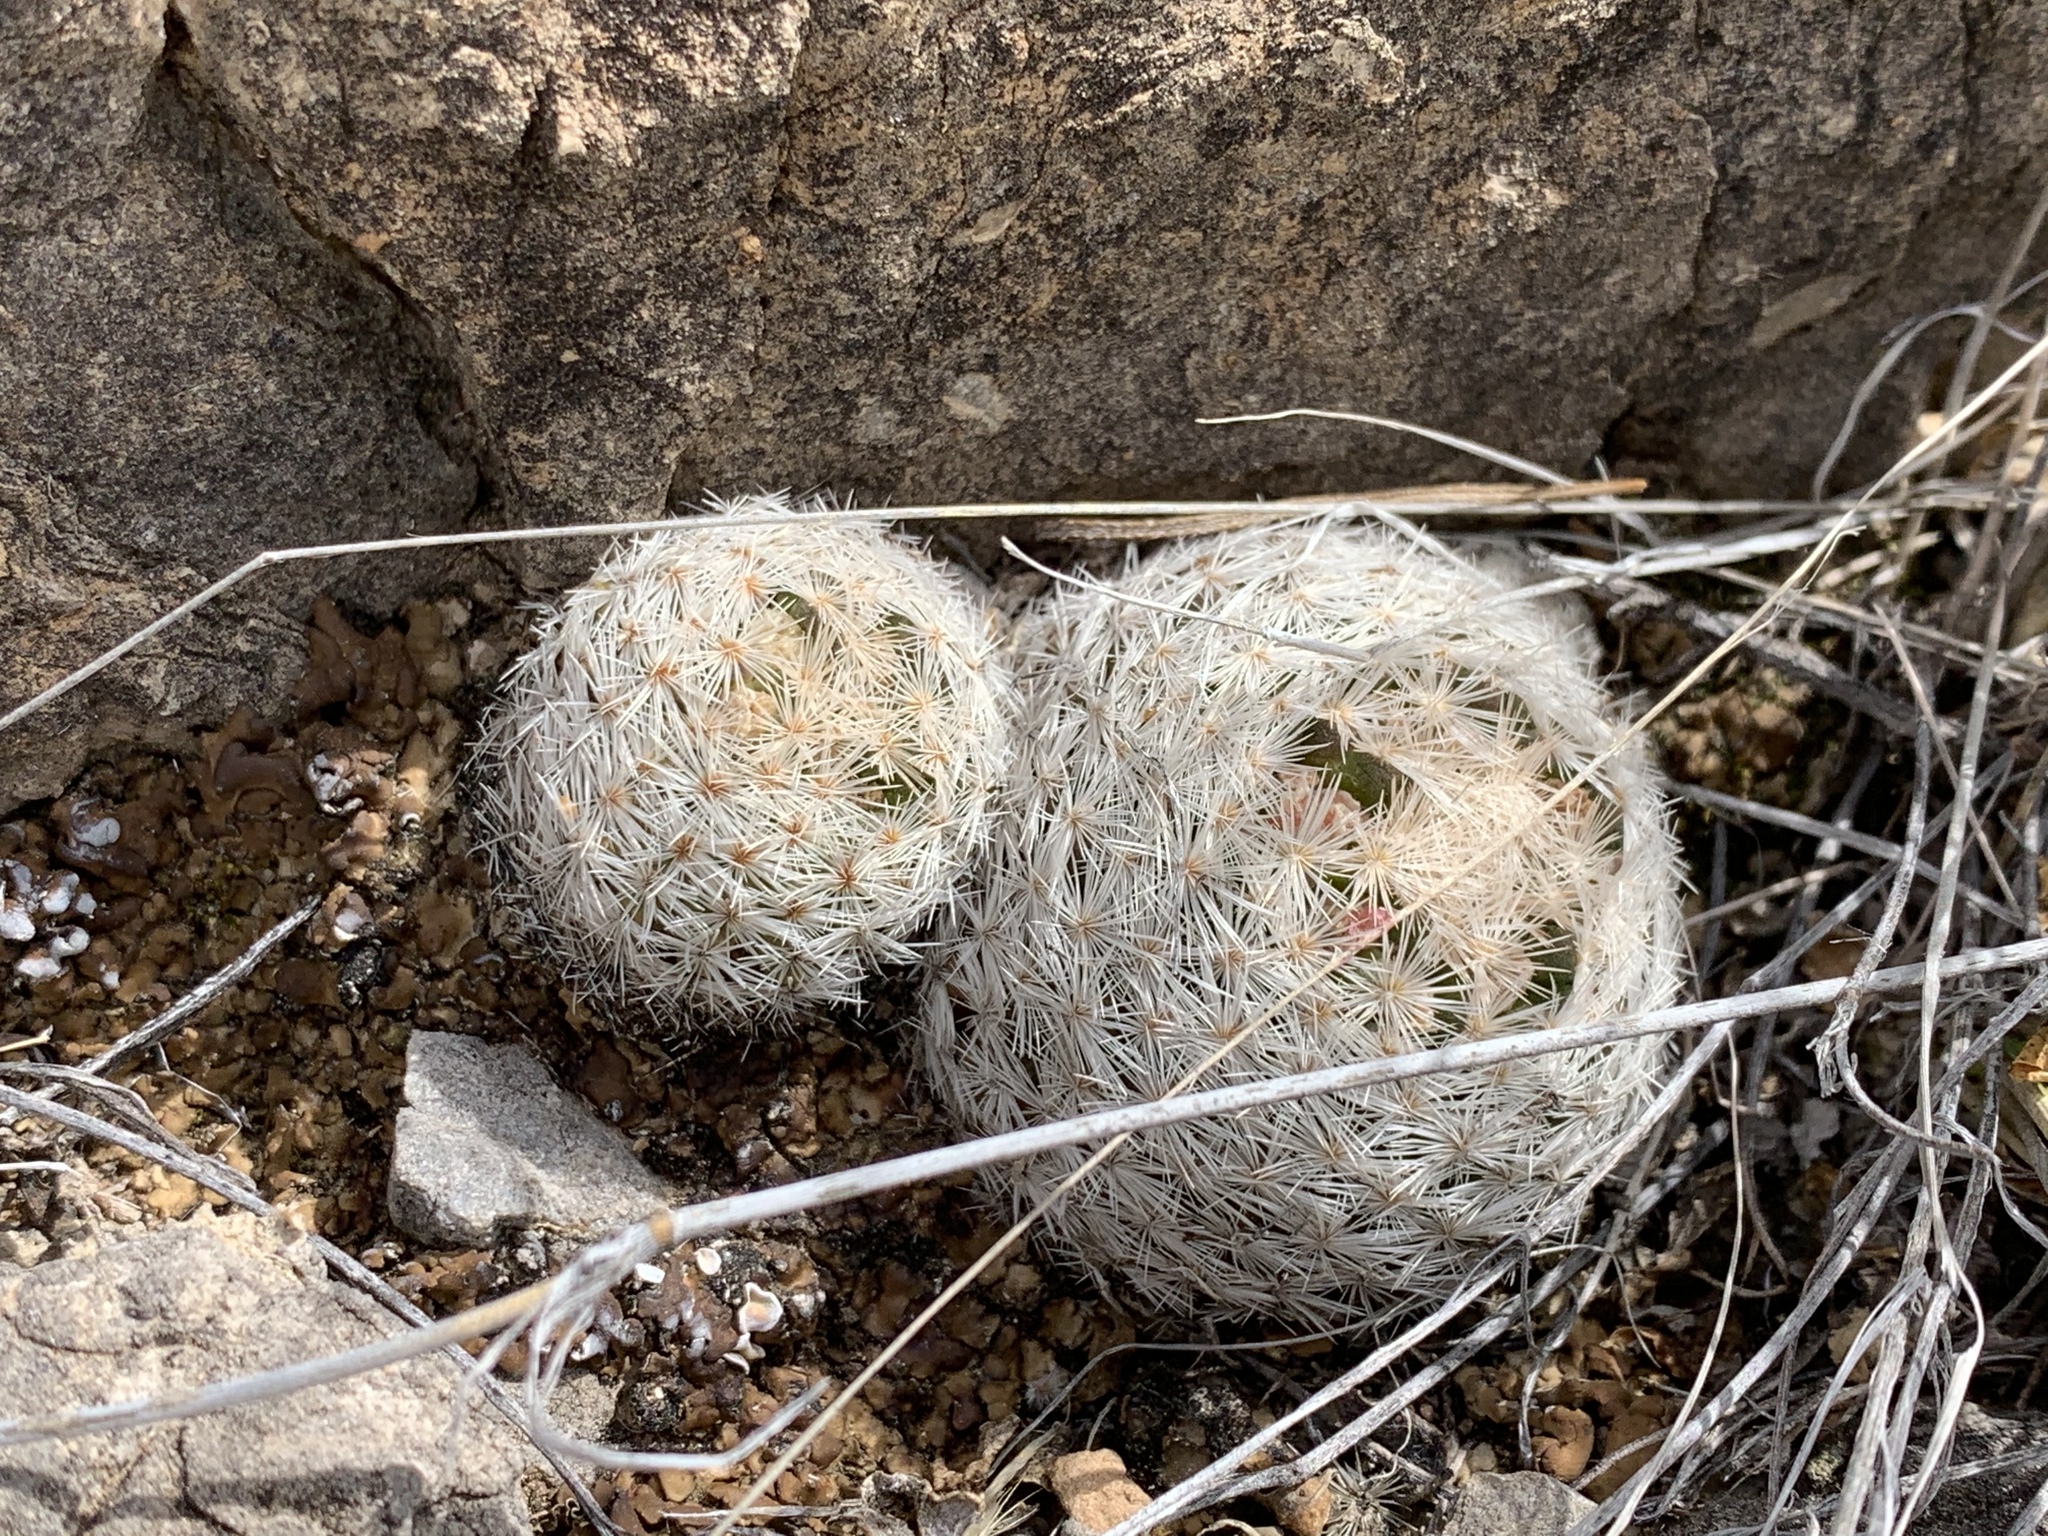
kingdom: Plantae
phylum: Tracheophyta
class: Magnoliopsida
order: Caryophyllales
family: Cactaceae
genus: Mammillaria
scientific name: Mammillaria lasiacantha
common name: Lace-spine nipple cactus
